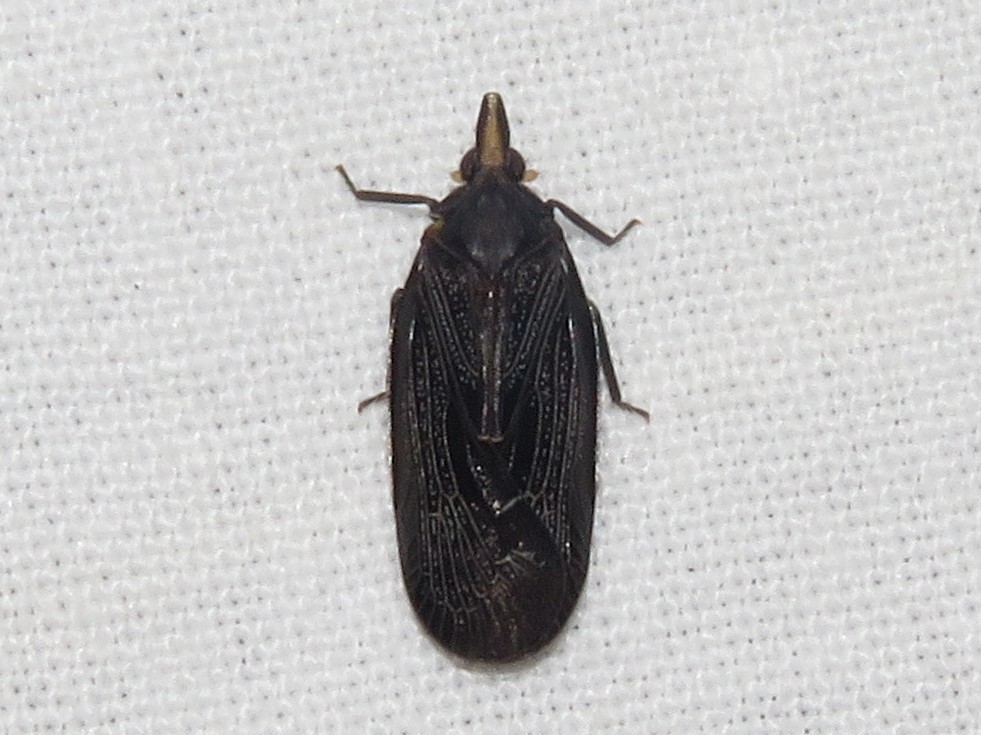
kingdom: Animalia
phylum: Arthropoda
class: Insecta
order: Hemiptera
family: Achilidae
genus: Cixidia
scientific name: Cixidia colorata
